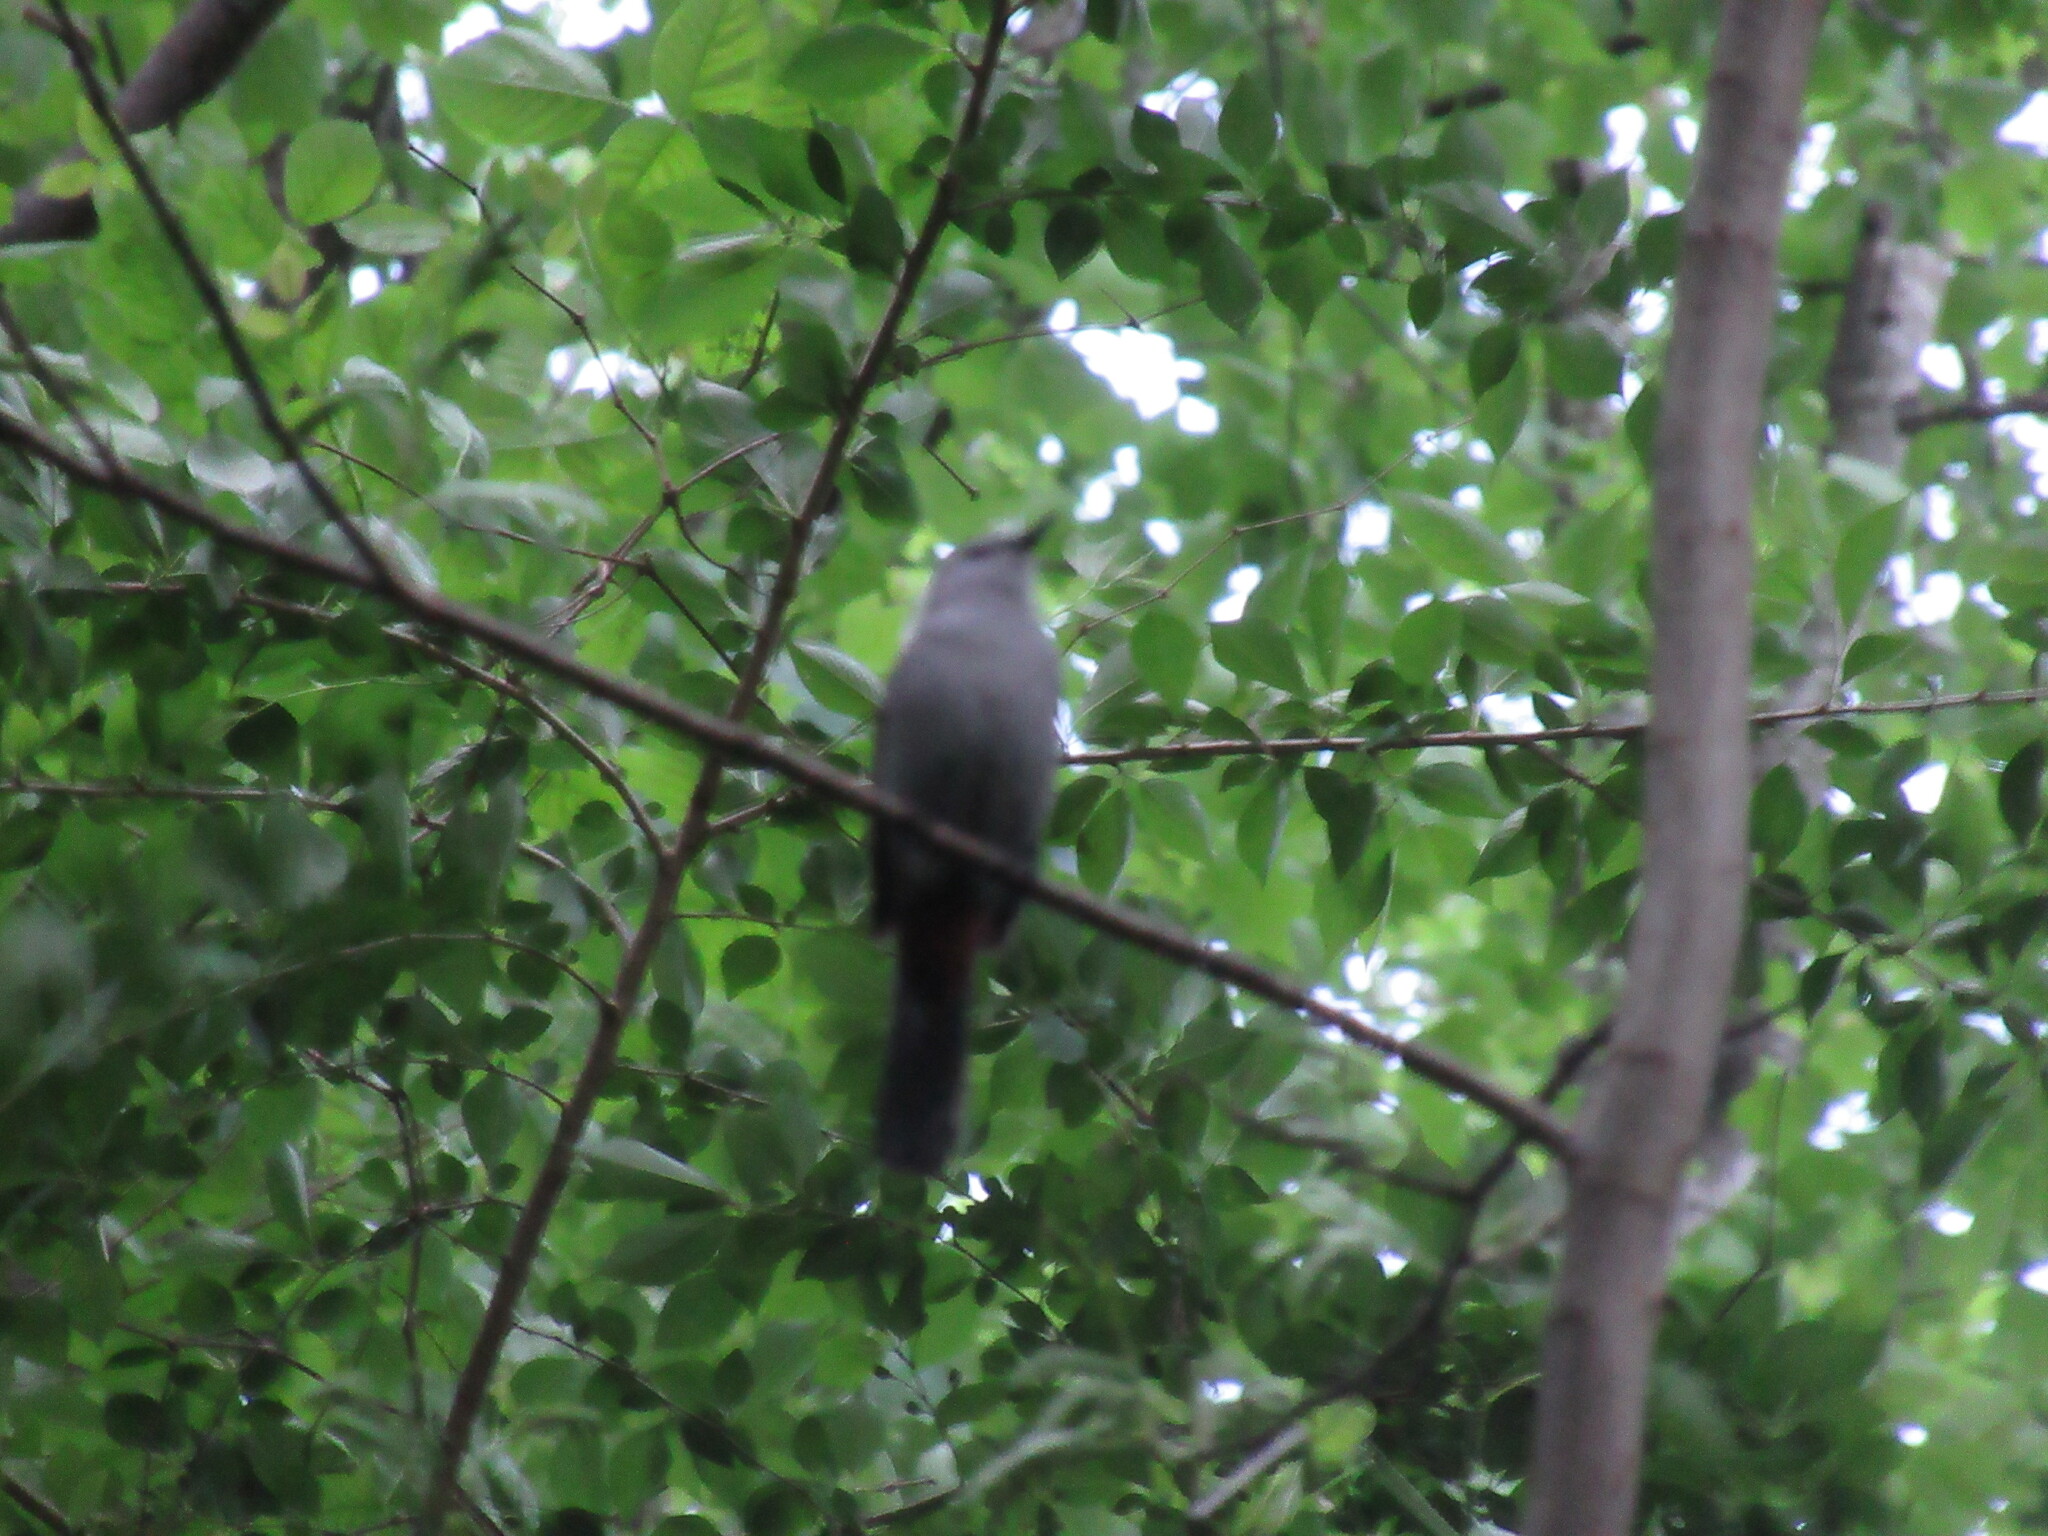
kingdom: Animalia
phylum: Chordata
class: Aves
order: Passeriformes
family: Mimidae
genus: Dumetella
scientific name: Dumetella carolinensis
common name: Gray catbird
